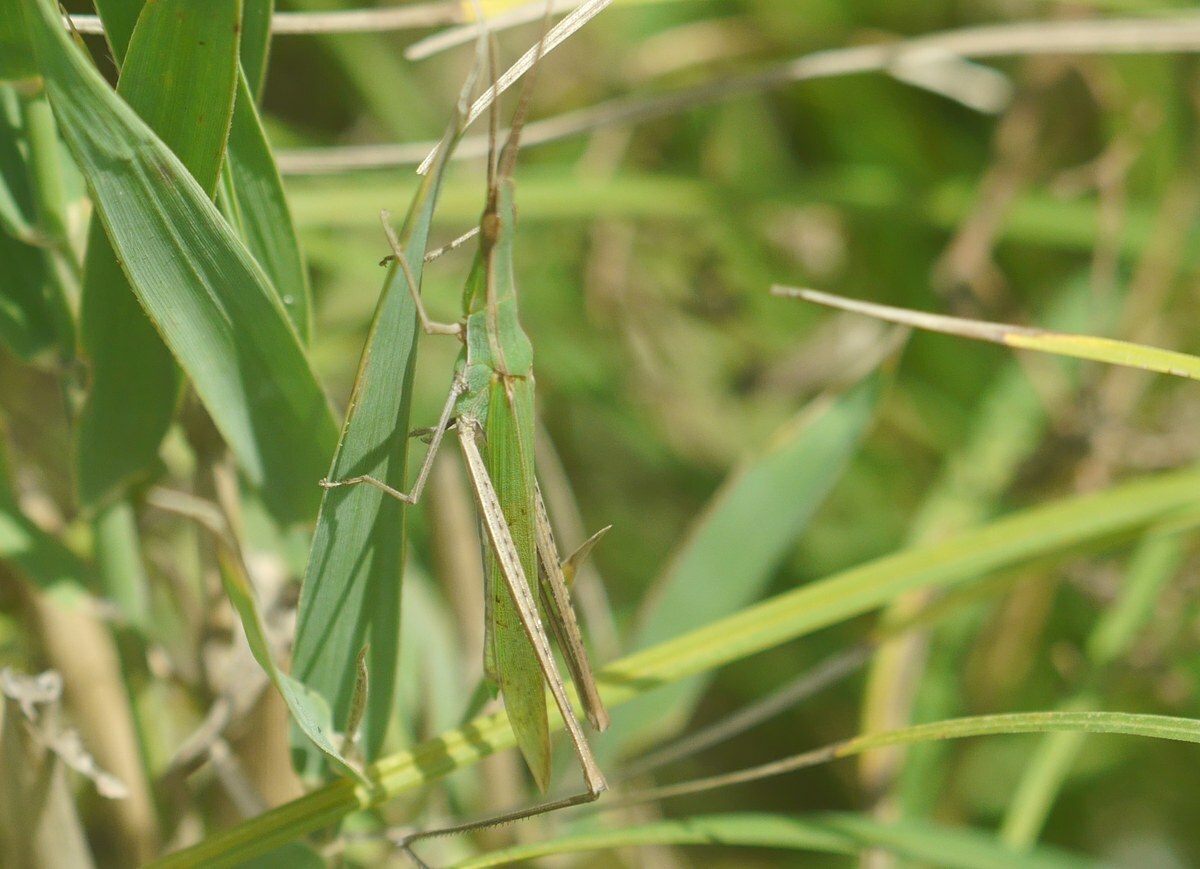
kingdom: Animalia
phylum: Arthropoda
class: Insecta
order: Orthoptera
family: Acrididae
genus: Acrida
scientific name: Acrida ungarica
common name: Common cone-headed grasshopper
